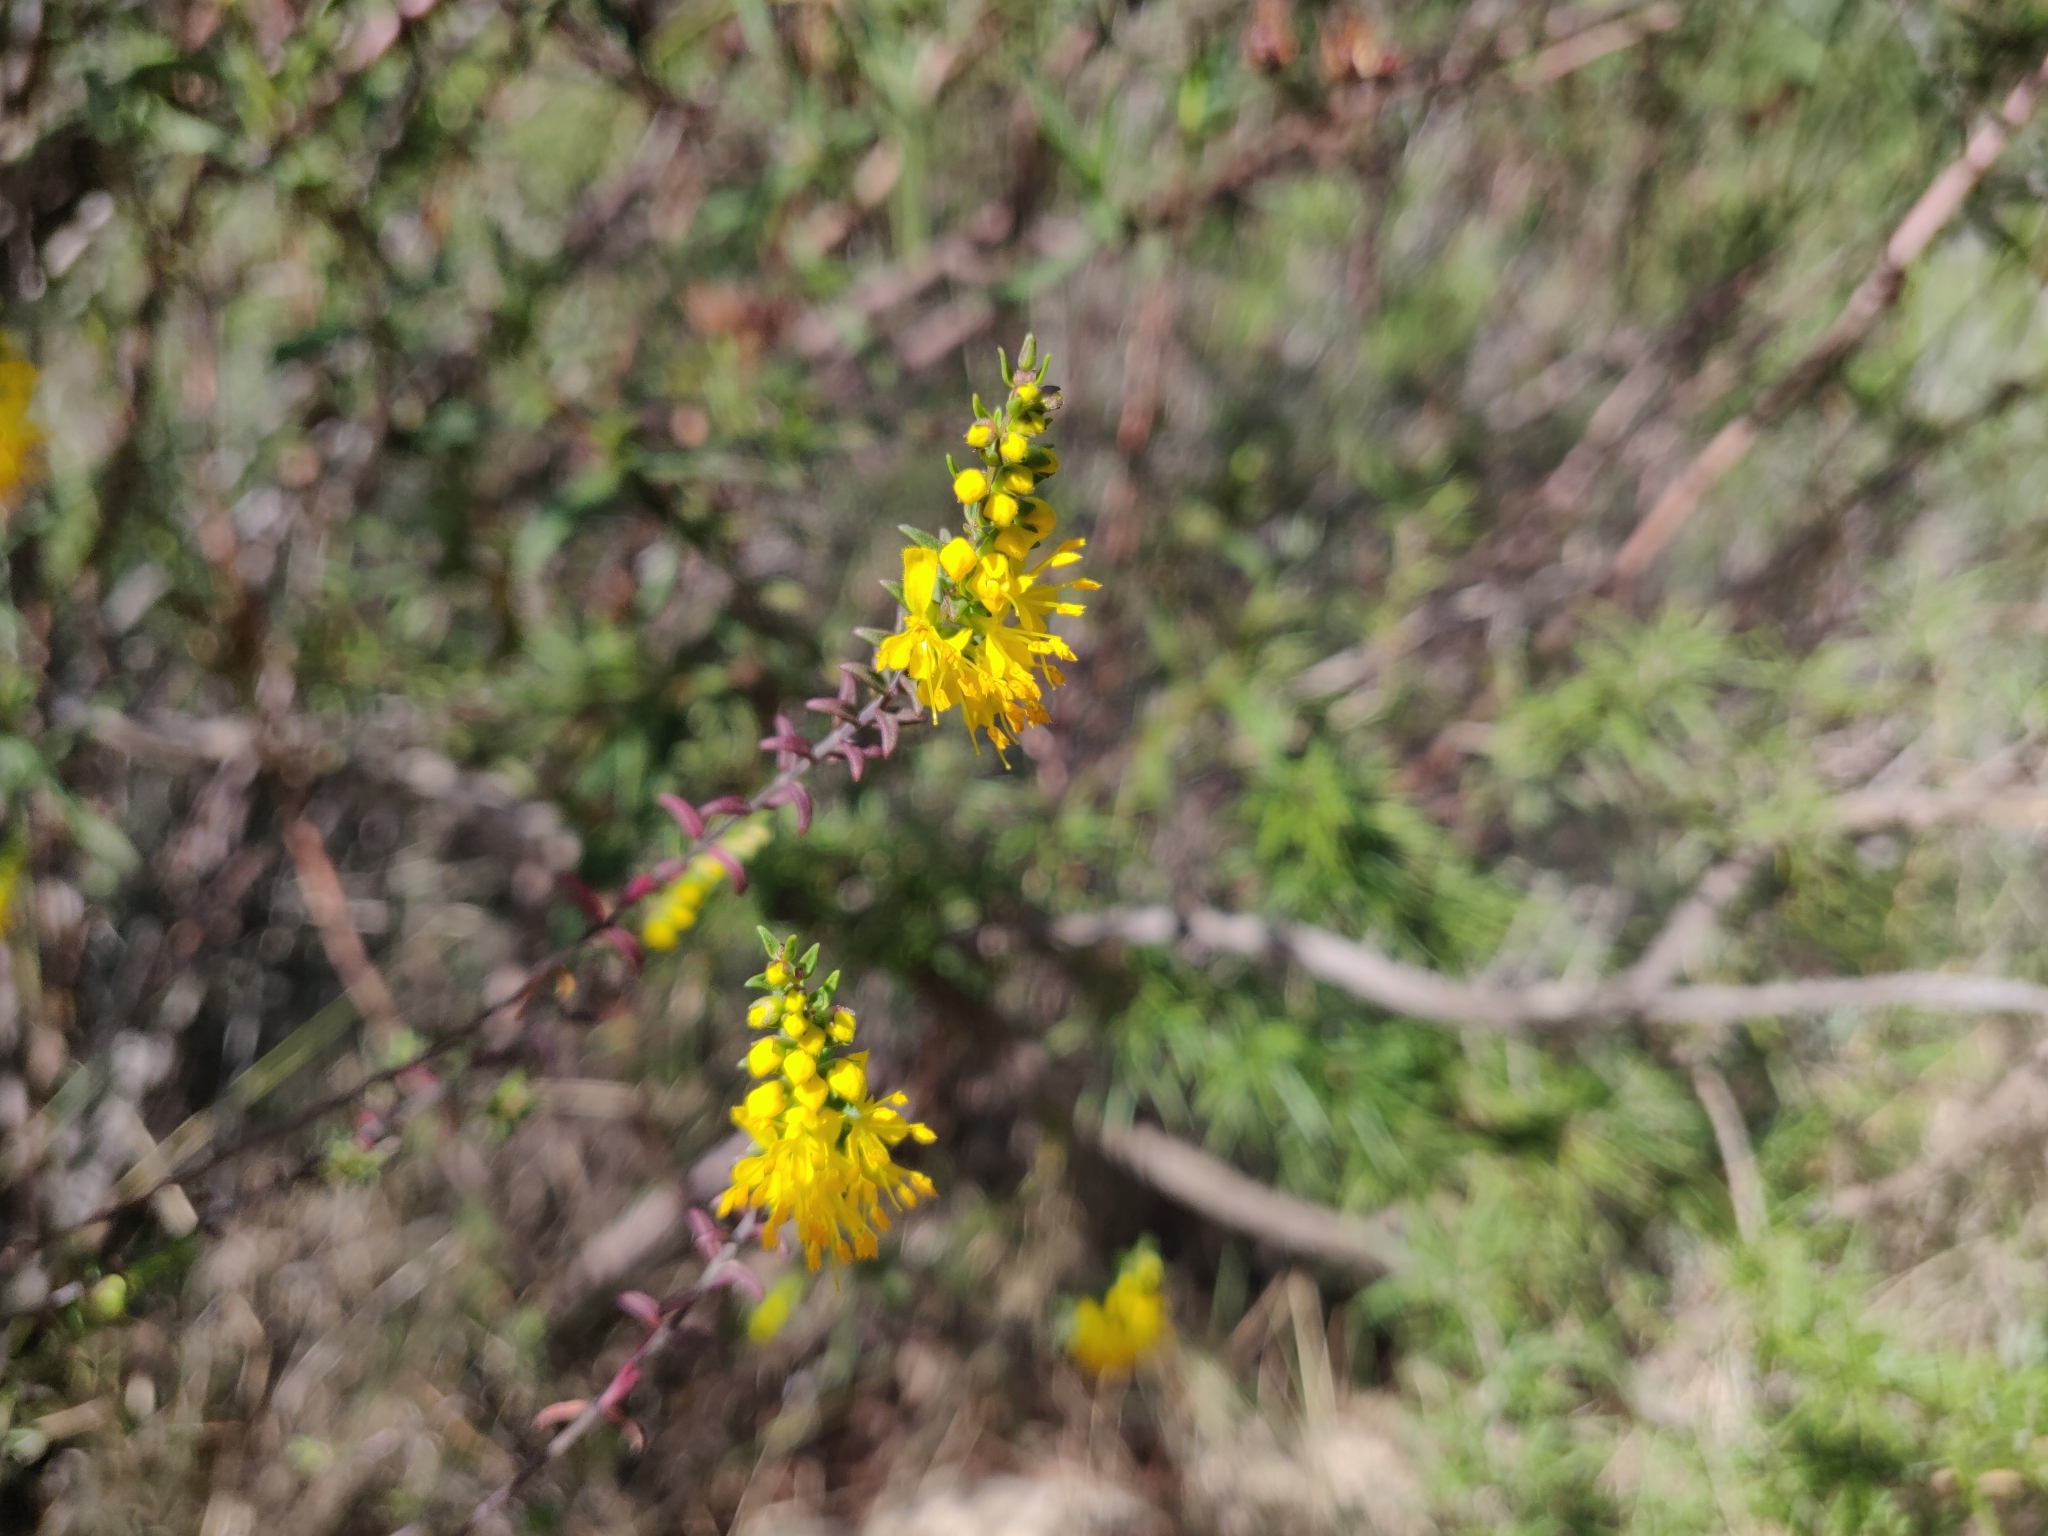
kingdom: Plantae
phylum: Tracheophyta
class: Magnoliopsida
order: Lamiales
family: Orobanchaceae
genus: Odontites
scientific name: Odontites luteus
